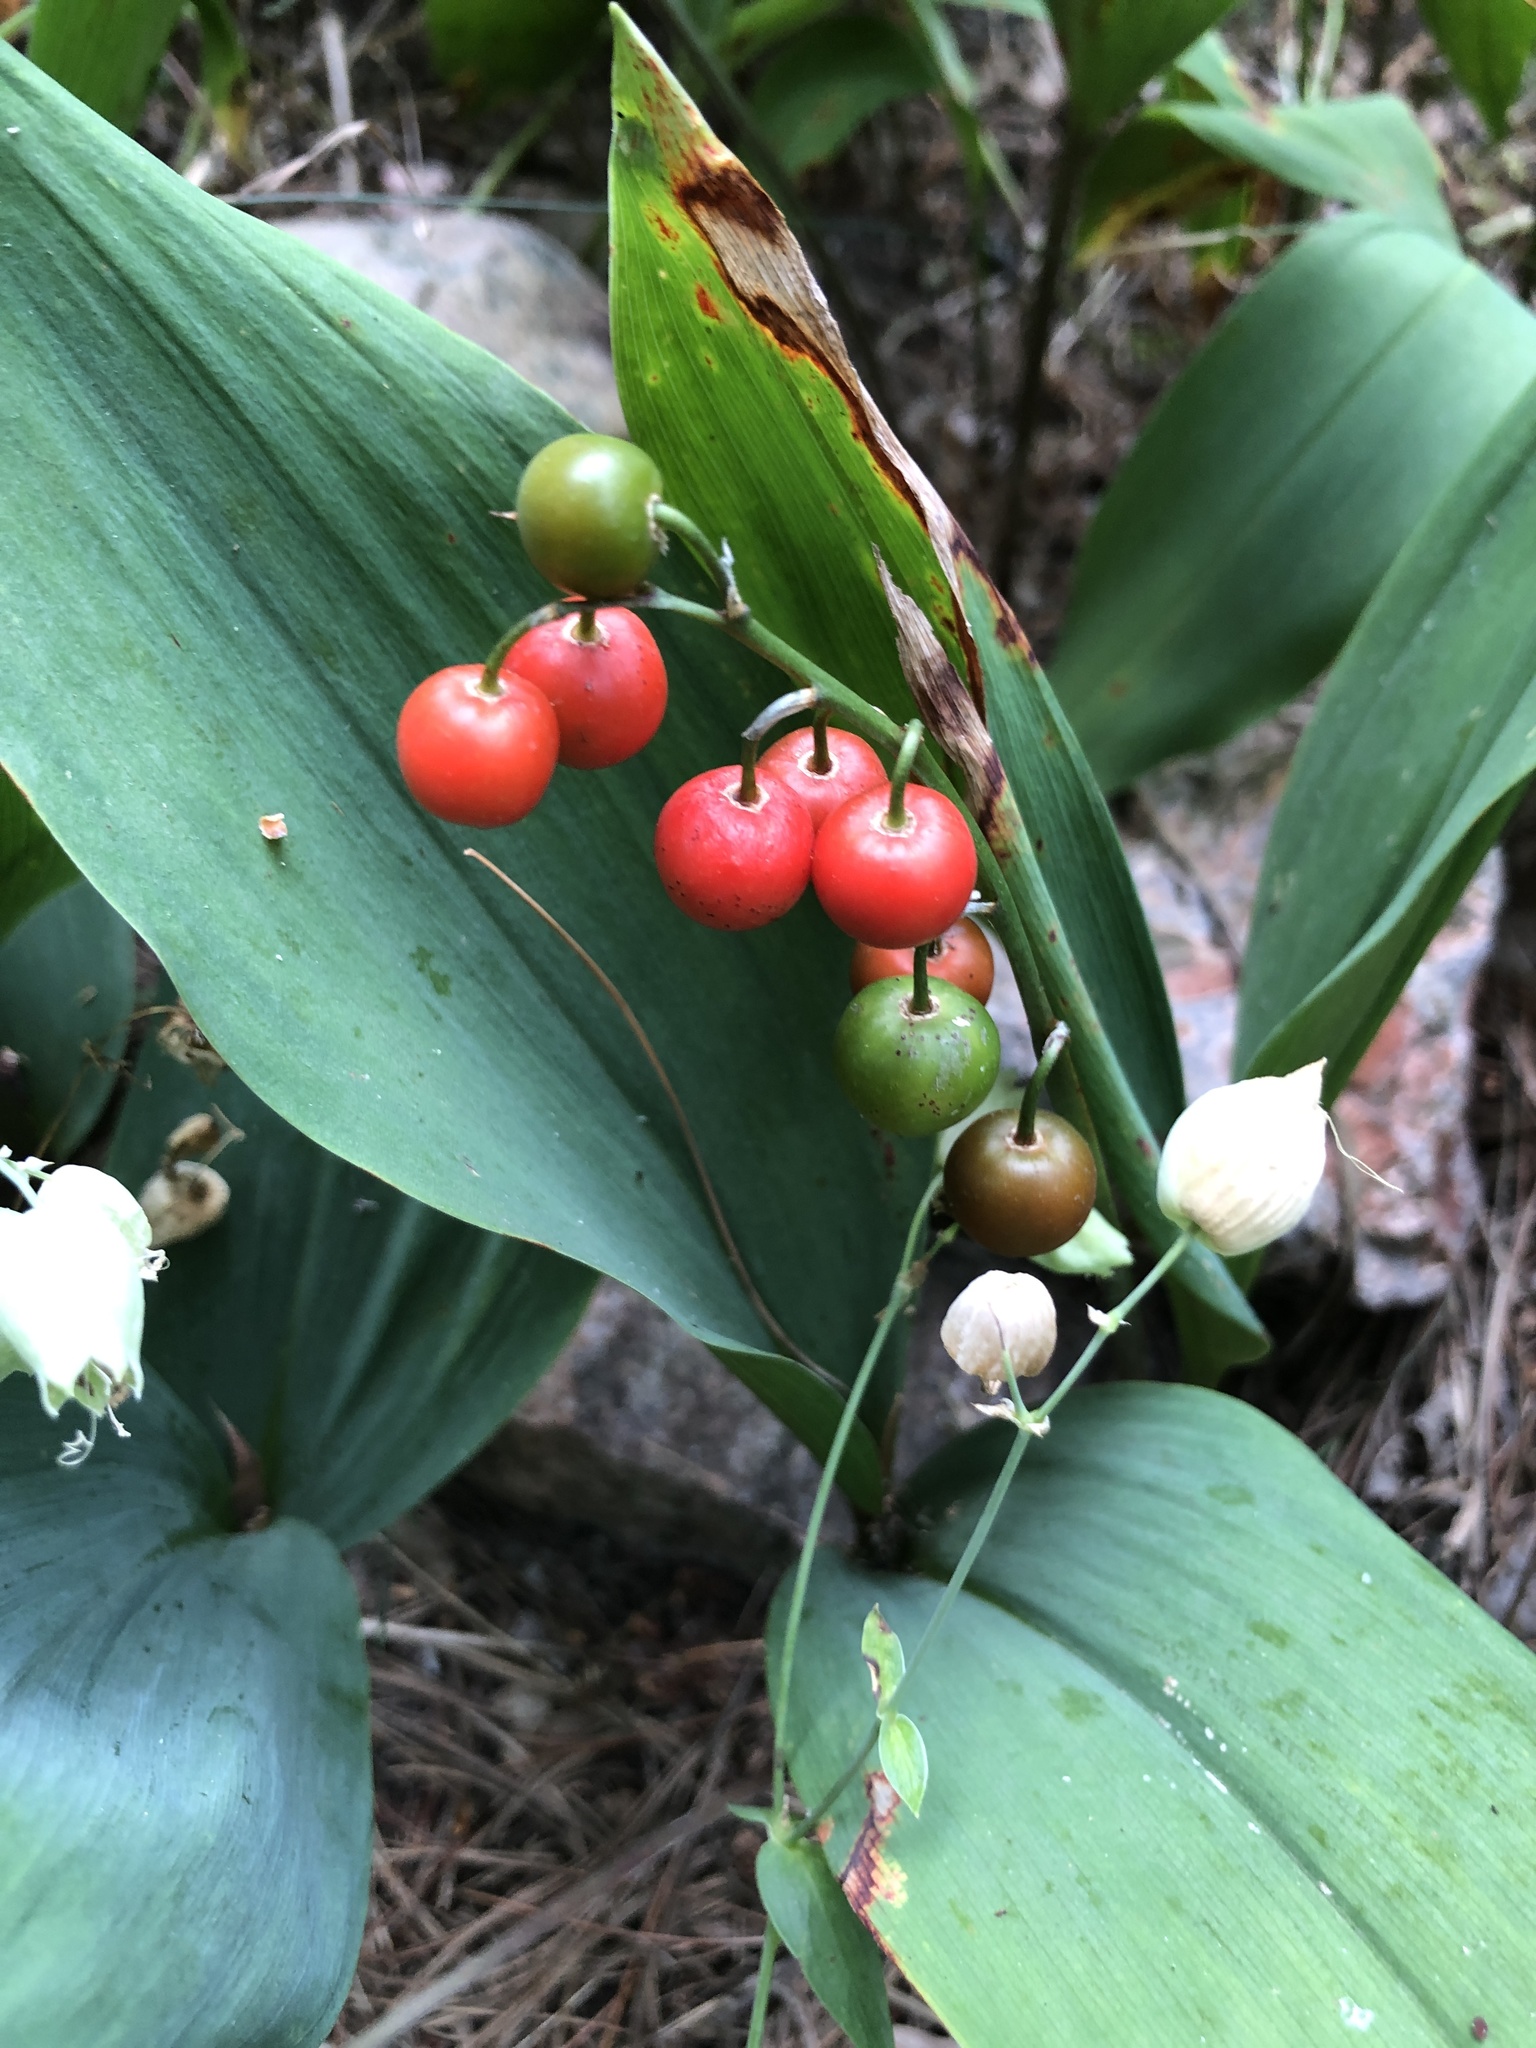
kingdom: Plantae
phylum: Tracheophyta
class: Liliopsida
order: Asparagales
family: Asparagaceae
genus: Convallaria
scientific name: Convallaria majalis
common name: Lily-of-the-valley
